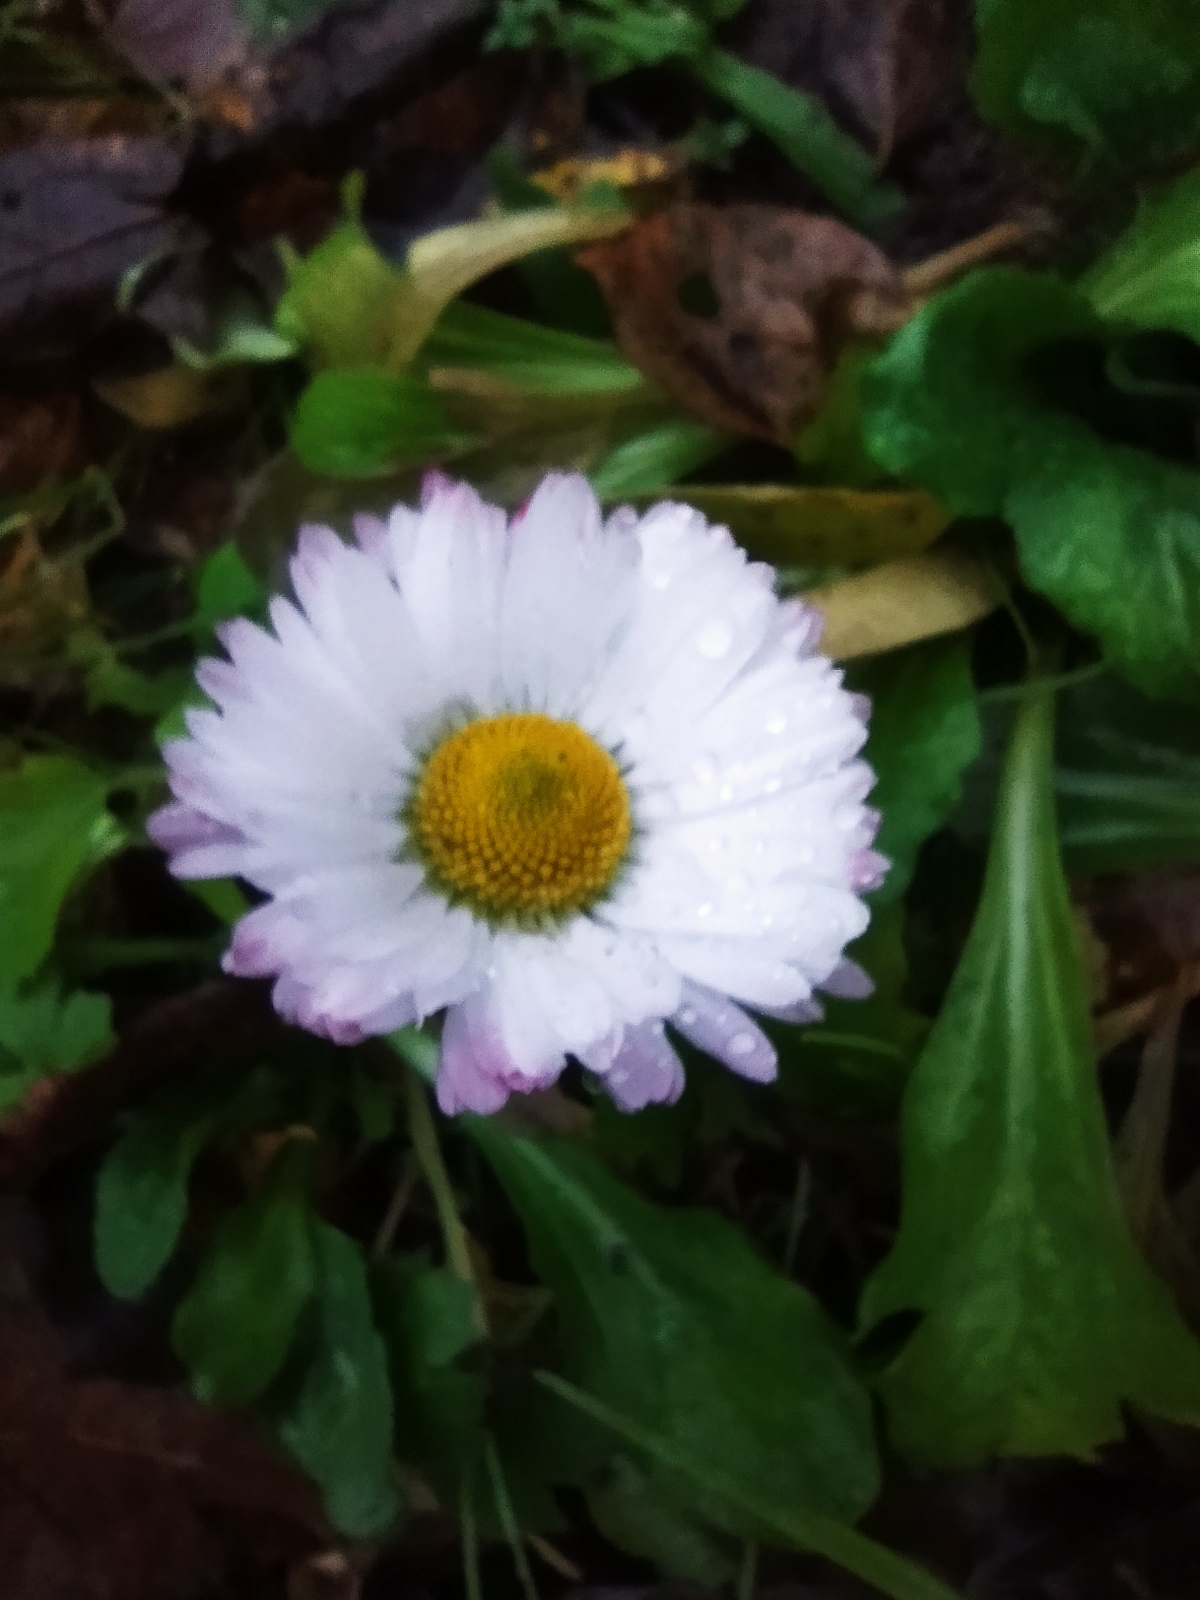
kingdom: Plantae
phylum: Tracheophyta
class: Magnoliopsida
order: Asterales
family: Asteraceae
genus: Bellis
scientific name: Bellis perennis
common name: Lawndaisy
